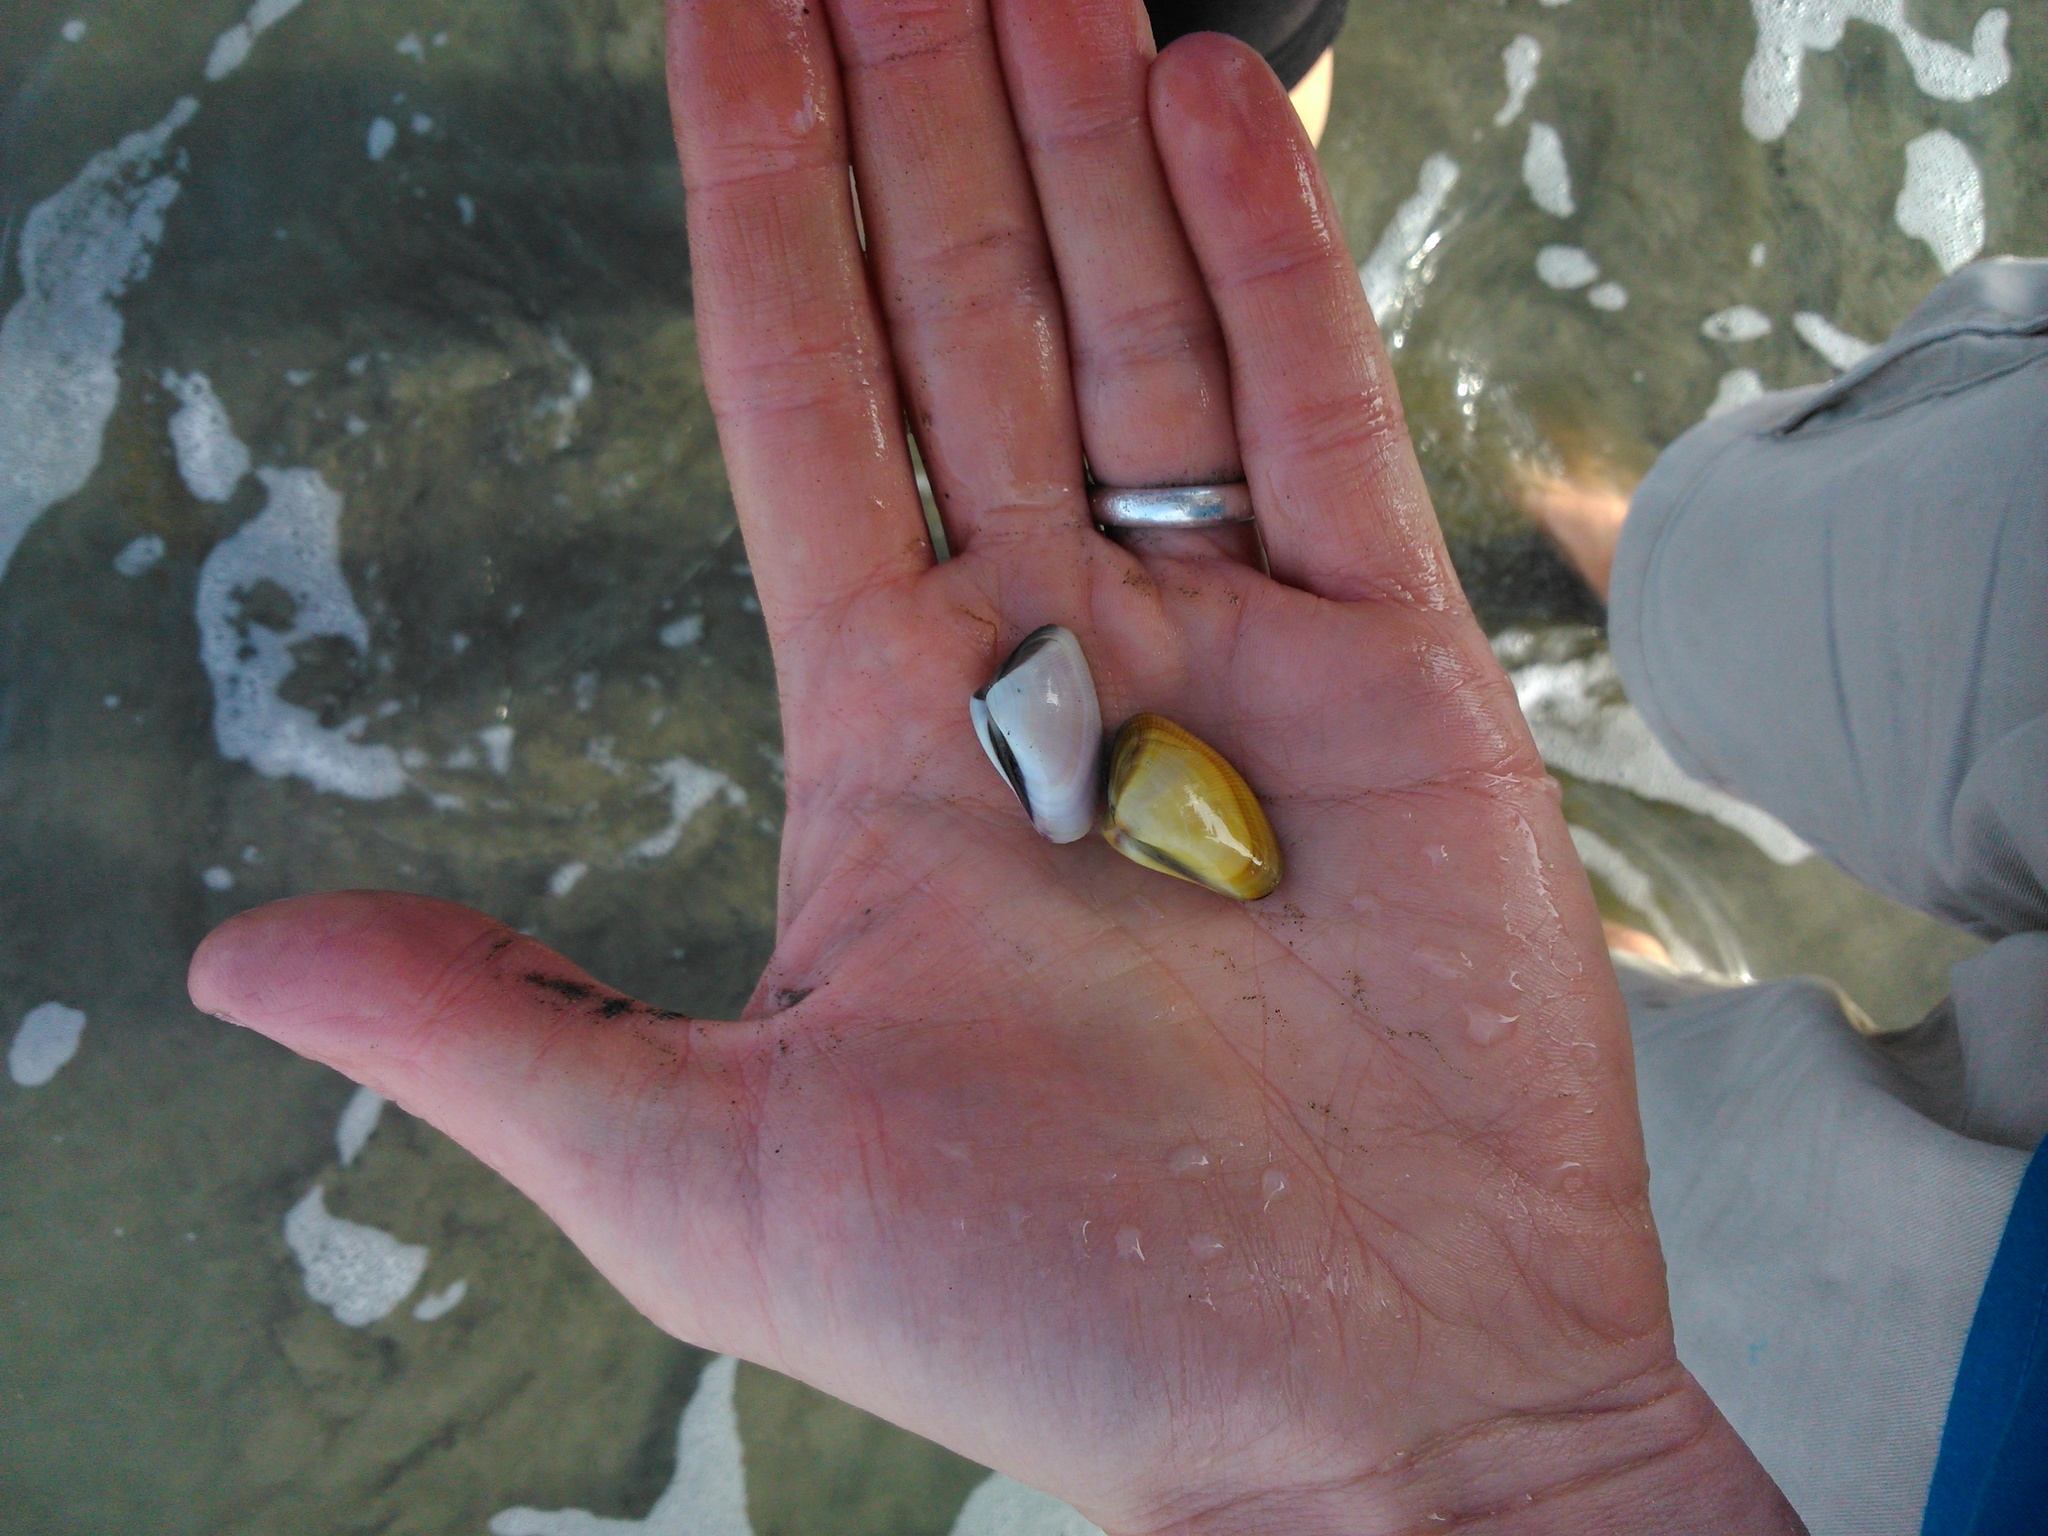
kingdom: Animalia
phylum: Mollusca
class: Bivalvia
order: Cardiida
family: Donacidae
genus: Donax
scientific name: Donax obesulus
